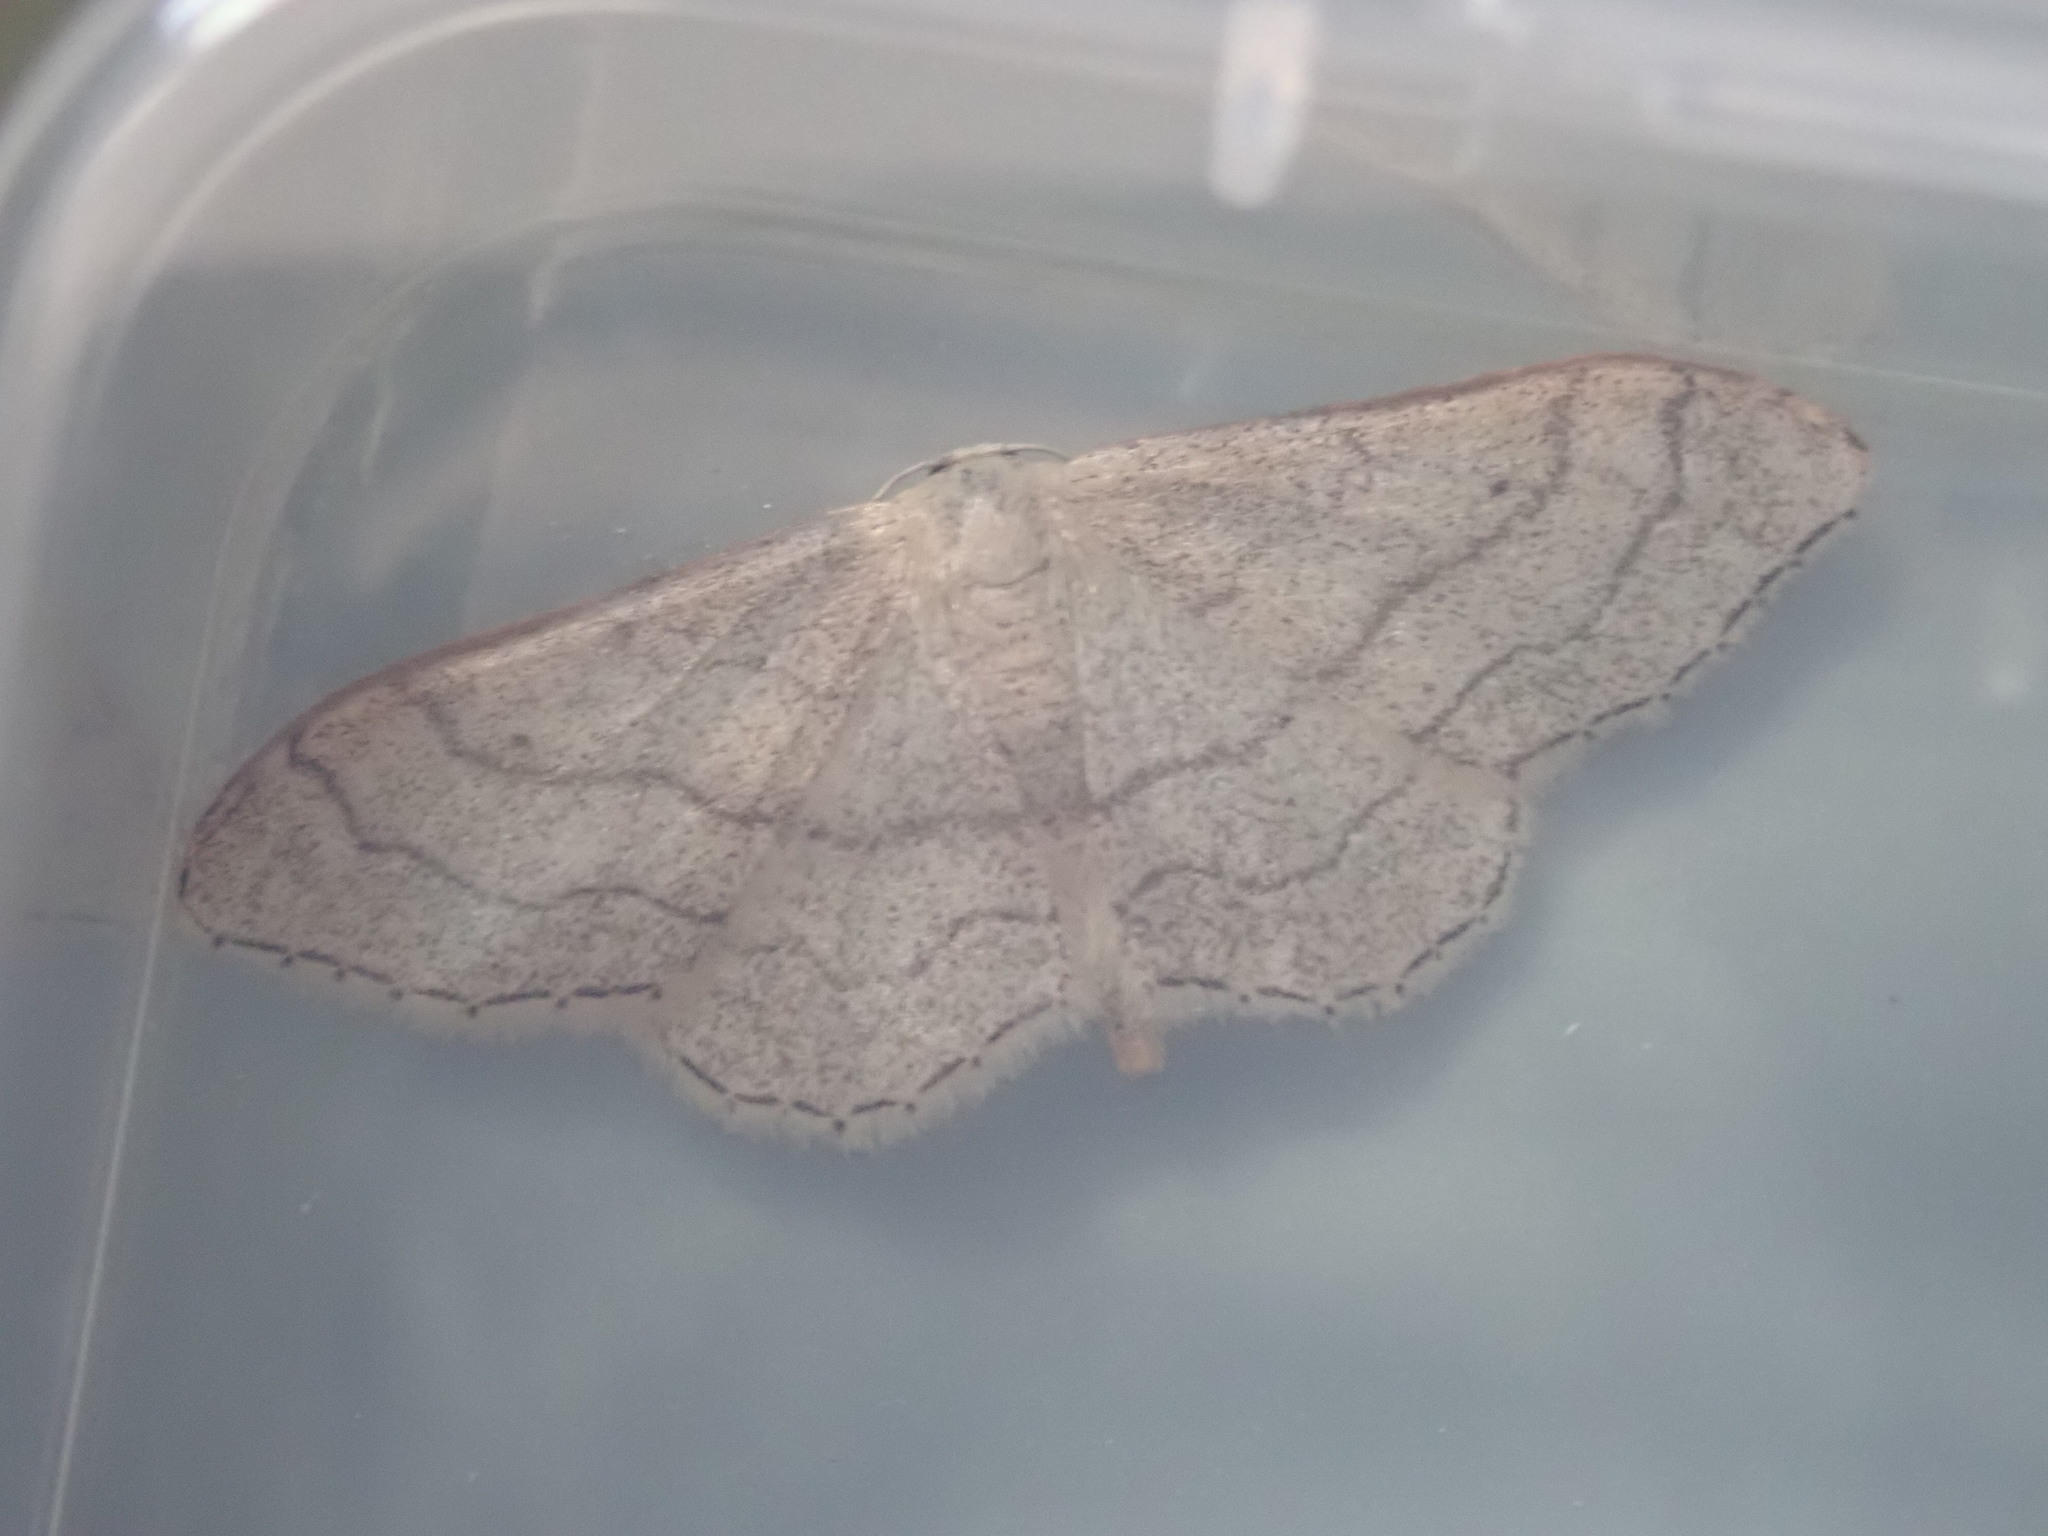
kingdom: Animalia
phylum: Arthropoda
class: Insecta
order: Lepidoptera
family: Geometridae
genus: Idaea
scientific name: Idaea aversata
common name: Riband wave
